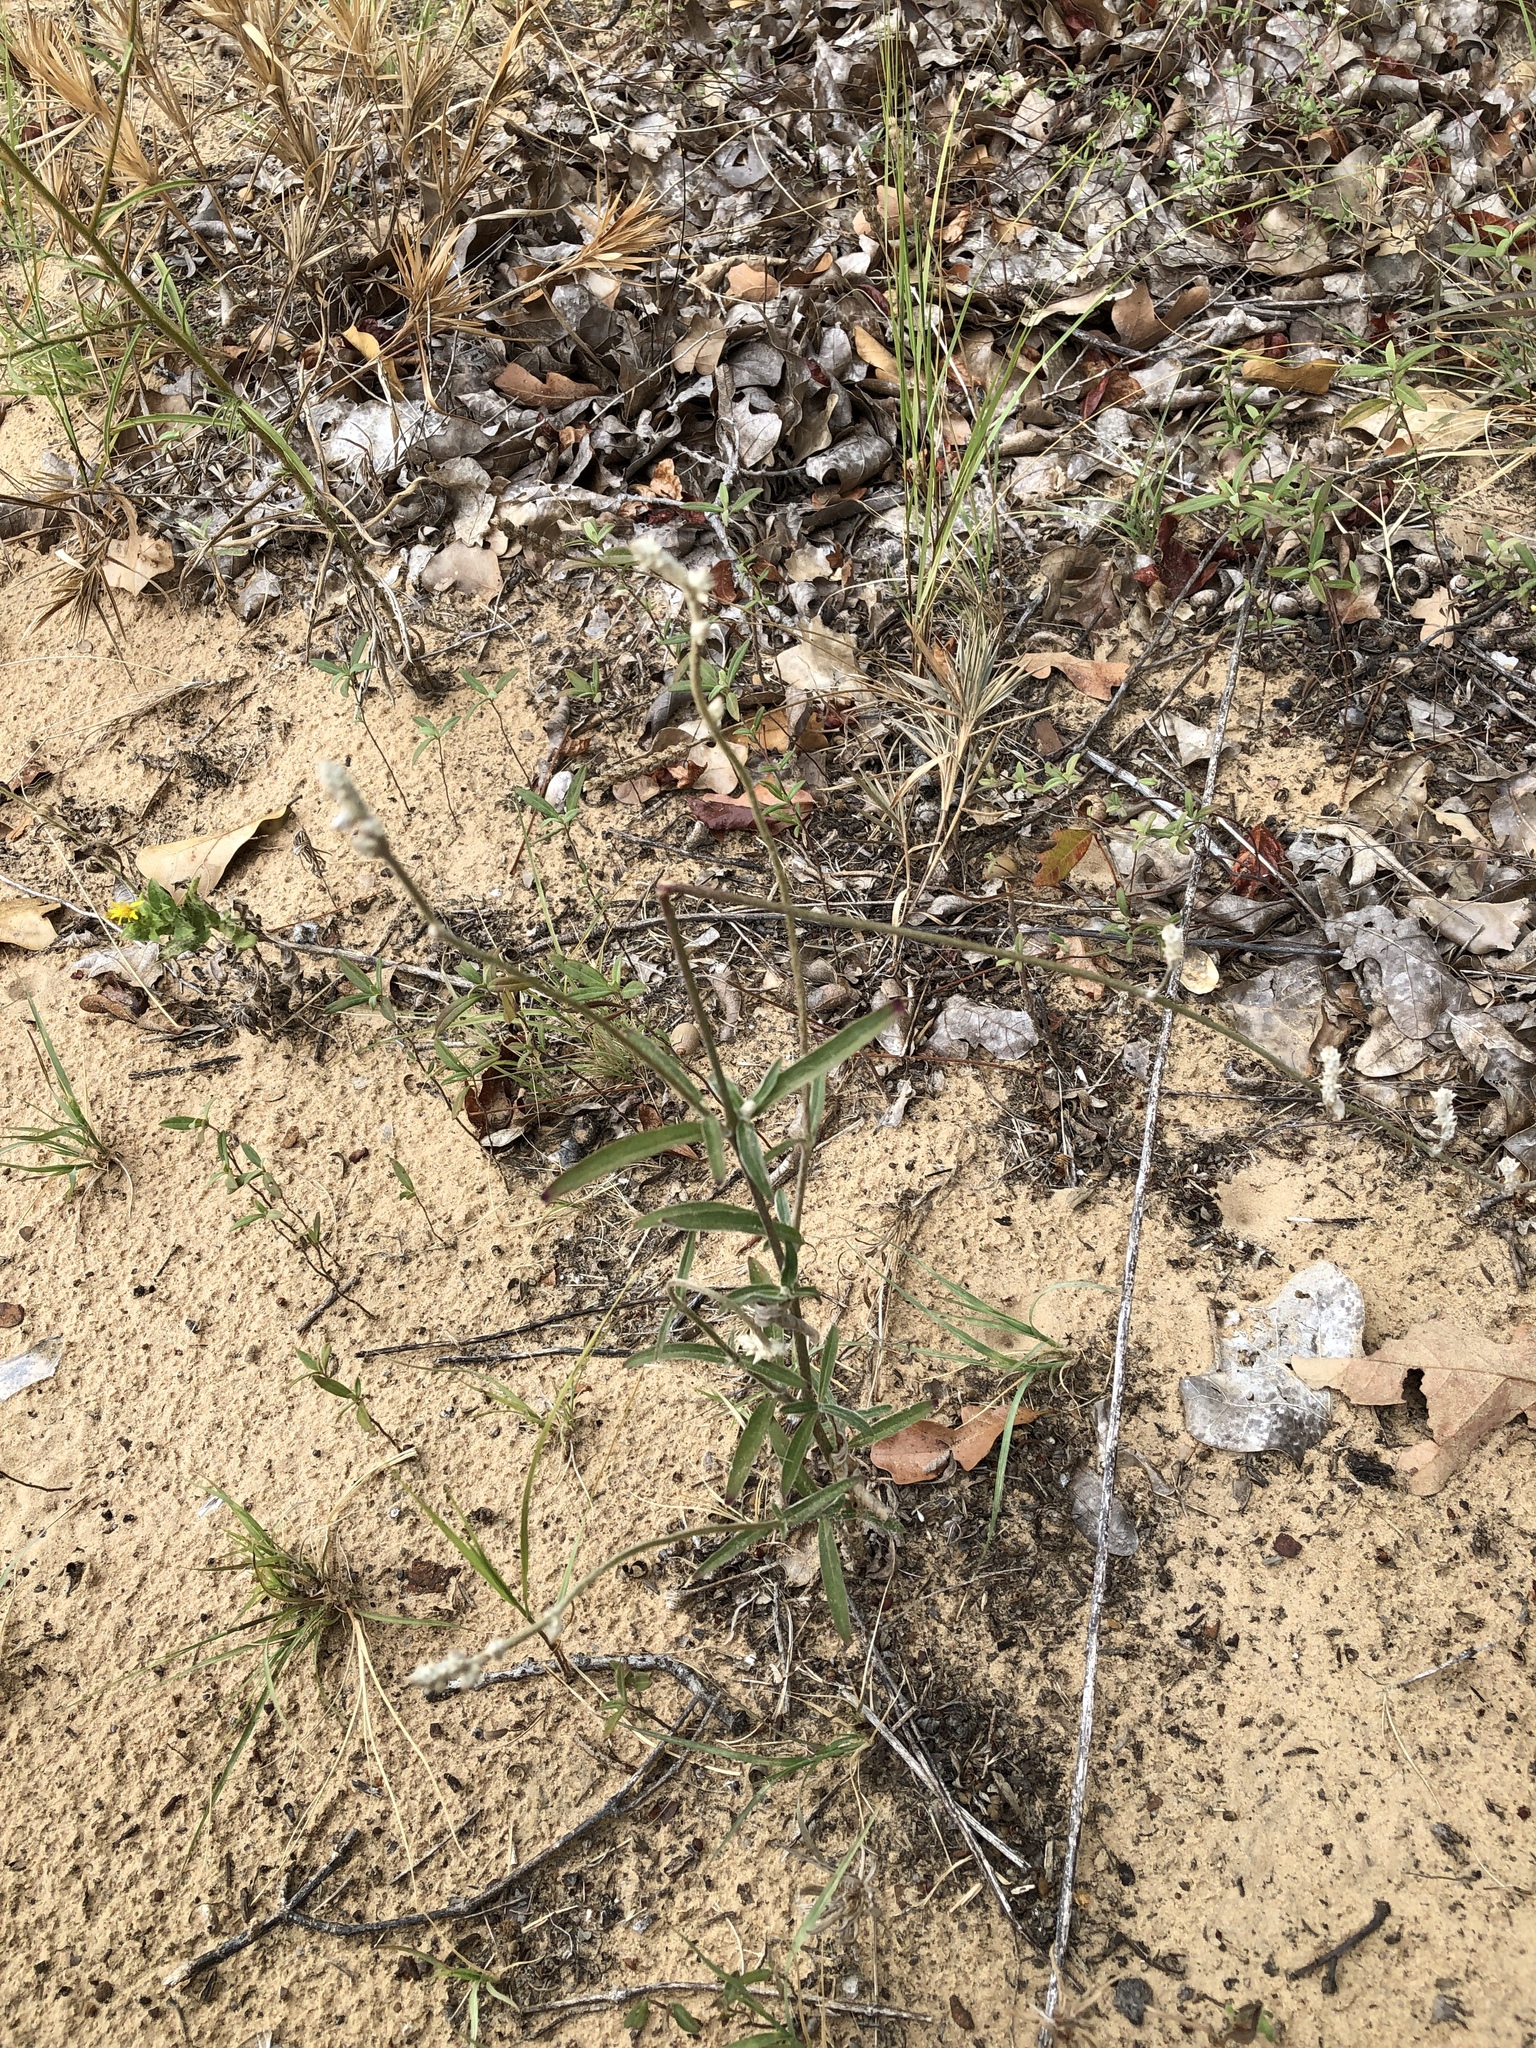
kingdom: Plantae
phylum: Tracheophyta
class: Magnoliopsida
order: Caryophyllales
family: Amaranthaceae
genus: Froelichia
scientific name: Froelichia floridana
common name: Florida snake-cotton
